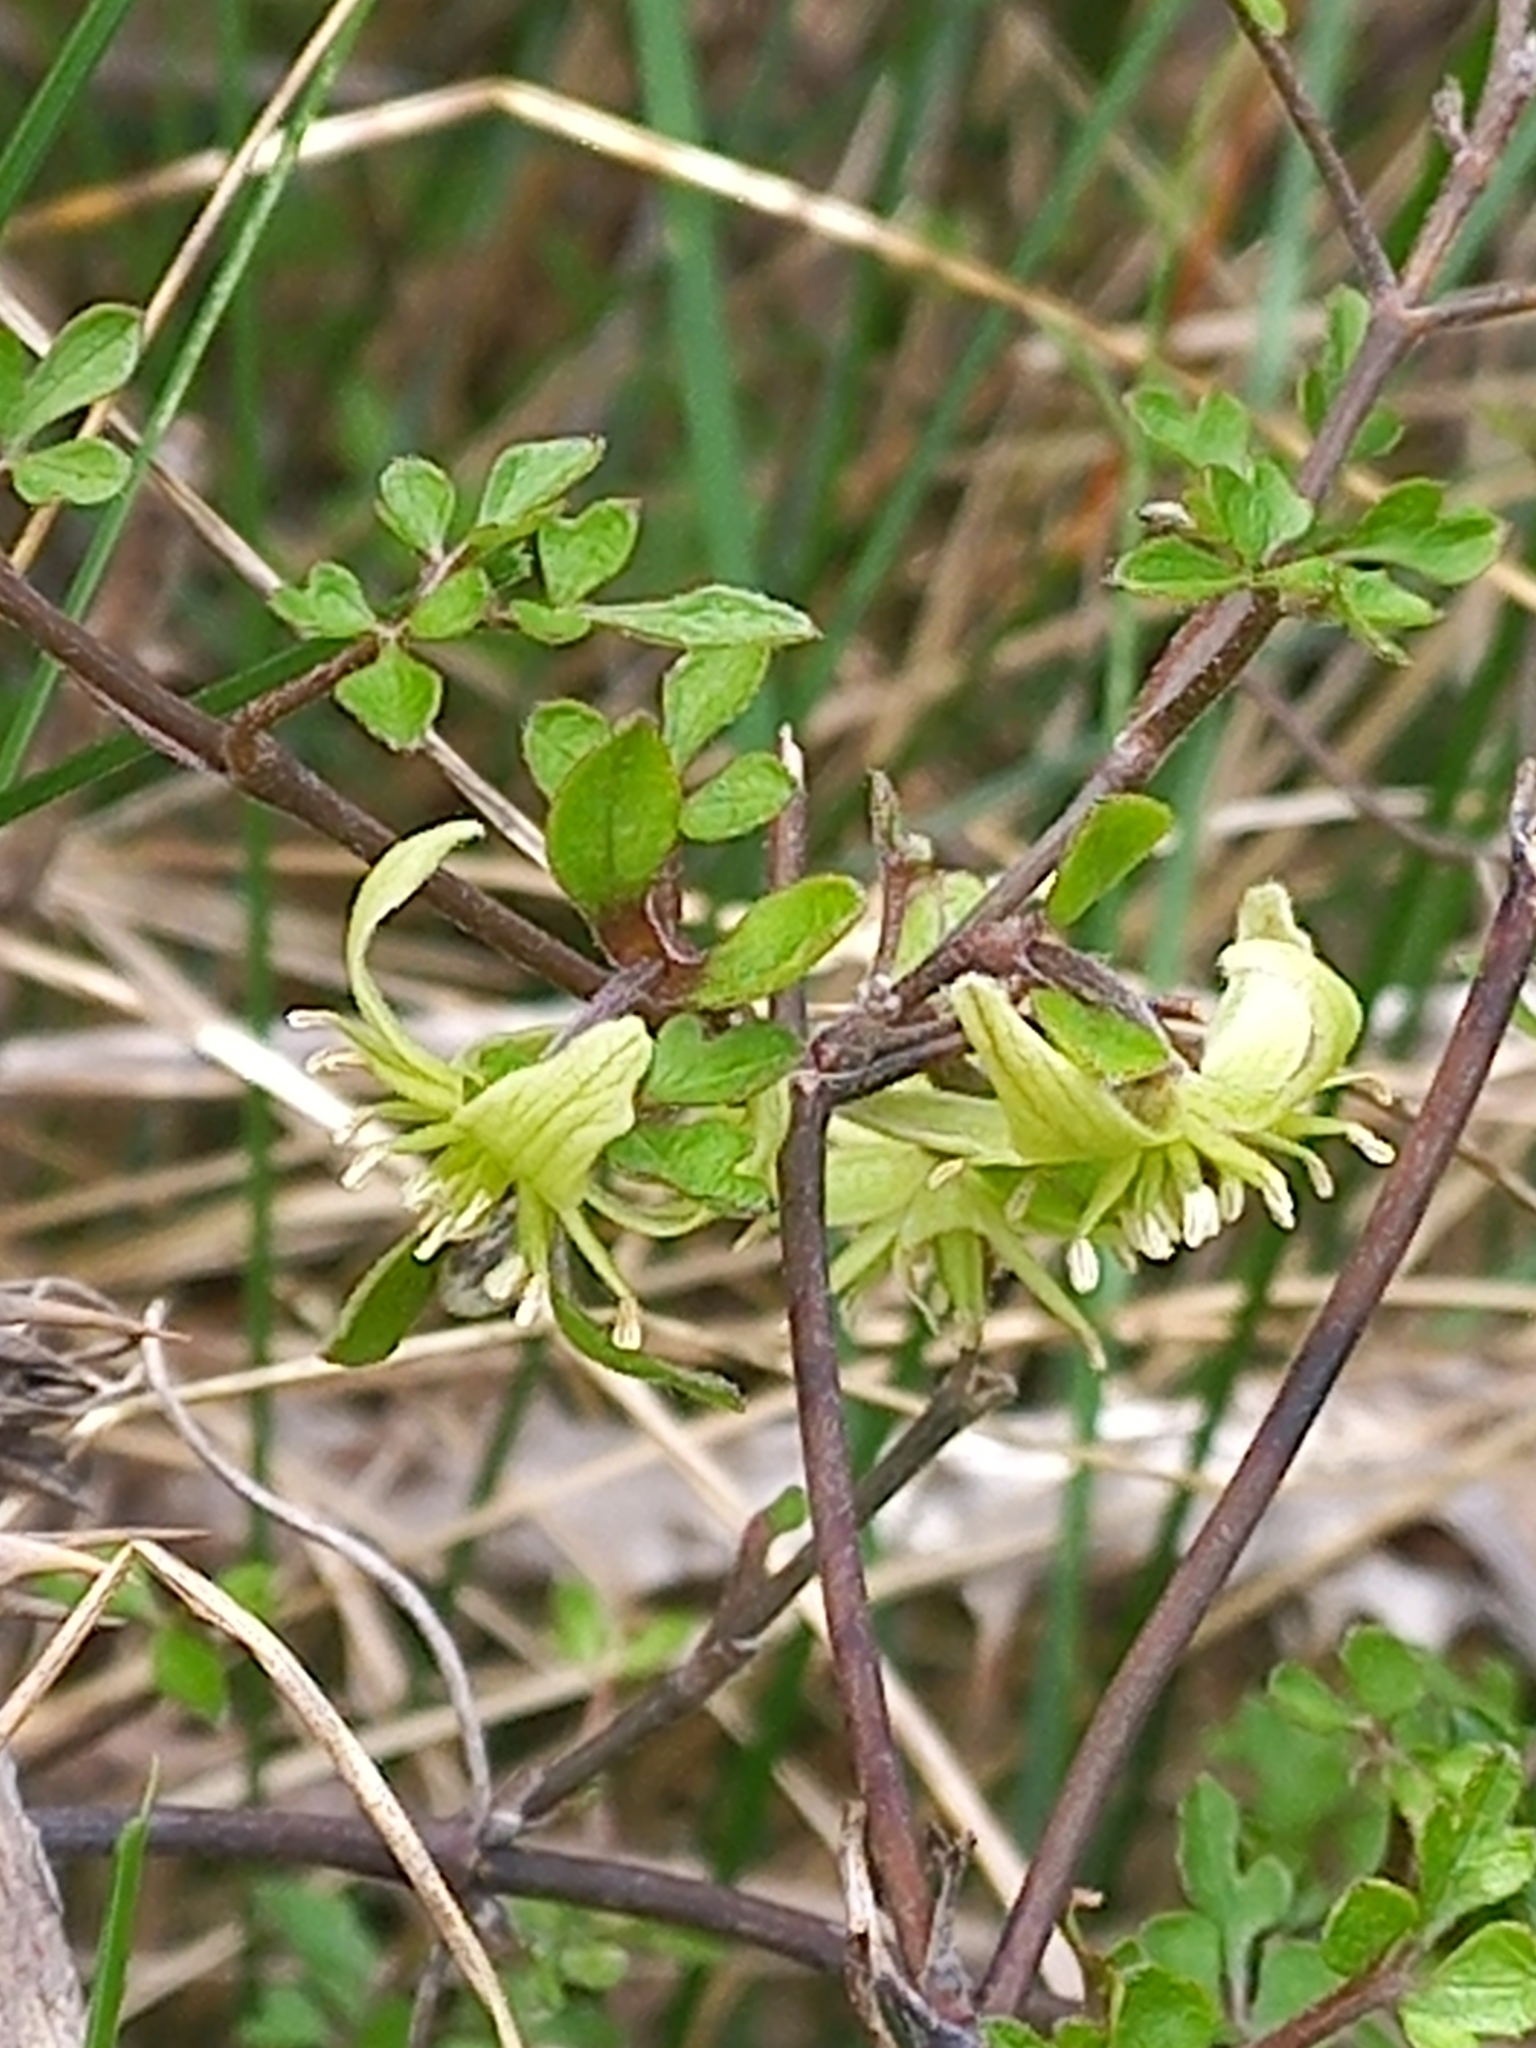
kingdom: Plantae
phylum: Tracheophyta
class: Magnoliopsida
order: Ranunculales
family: Ranunculaceae
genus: Clematis
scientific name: Clematis marata
